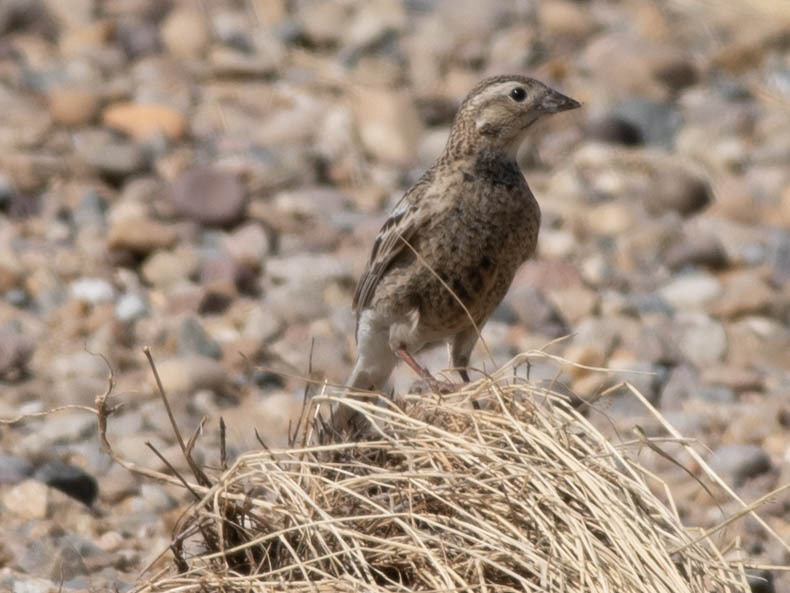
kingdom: Animalia
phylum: Chordata
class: Aves
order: Passeriformes
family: Calcariidae
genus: Calcarius
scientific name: Calcarius ornatus
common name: Chestnut-collared longspur
